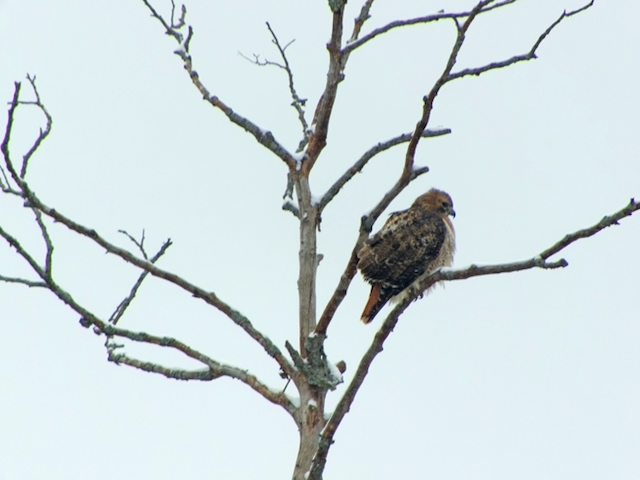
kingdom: Animalia
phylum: Chordata
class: Aves
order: Accipitriformes
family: Accipitridae
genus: Buteo
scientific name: Buteo jamaicensis
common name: Red-tailed hawk
